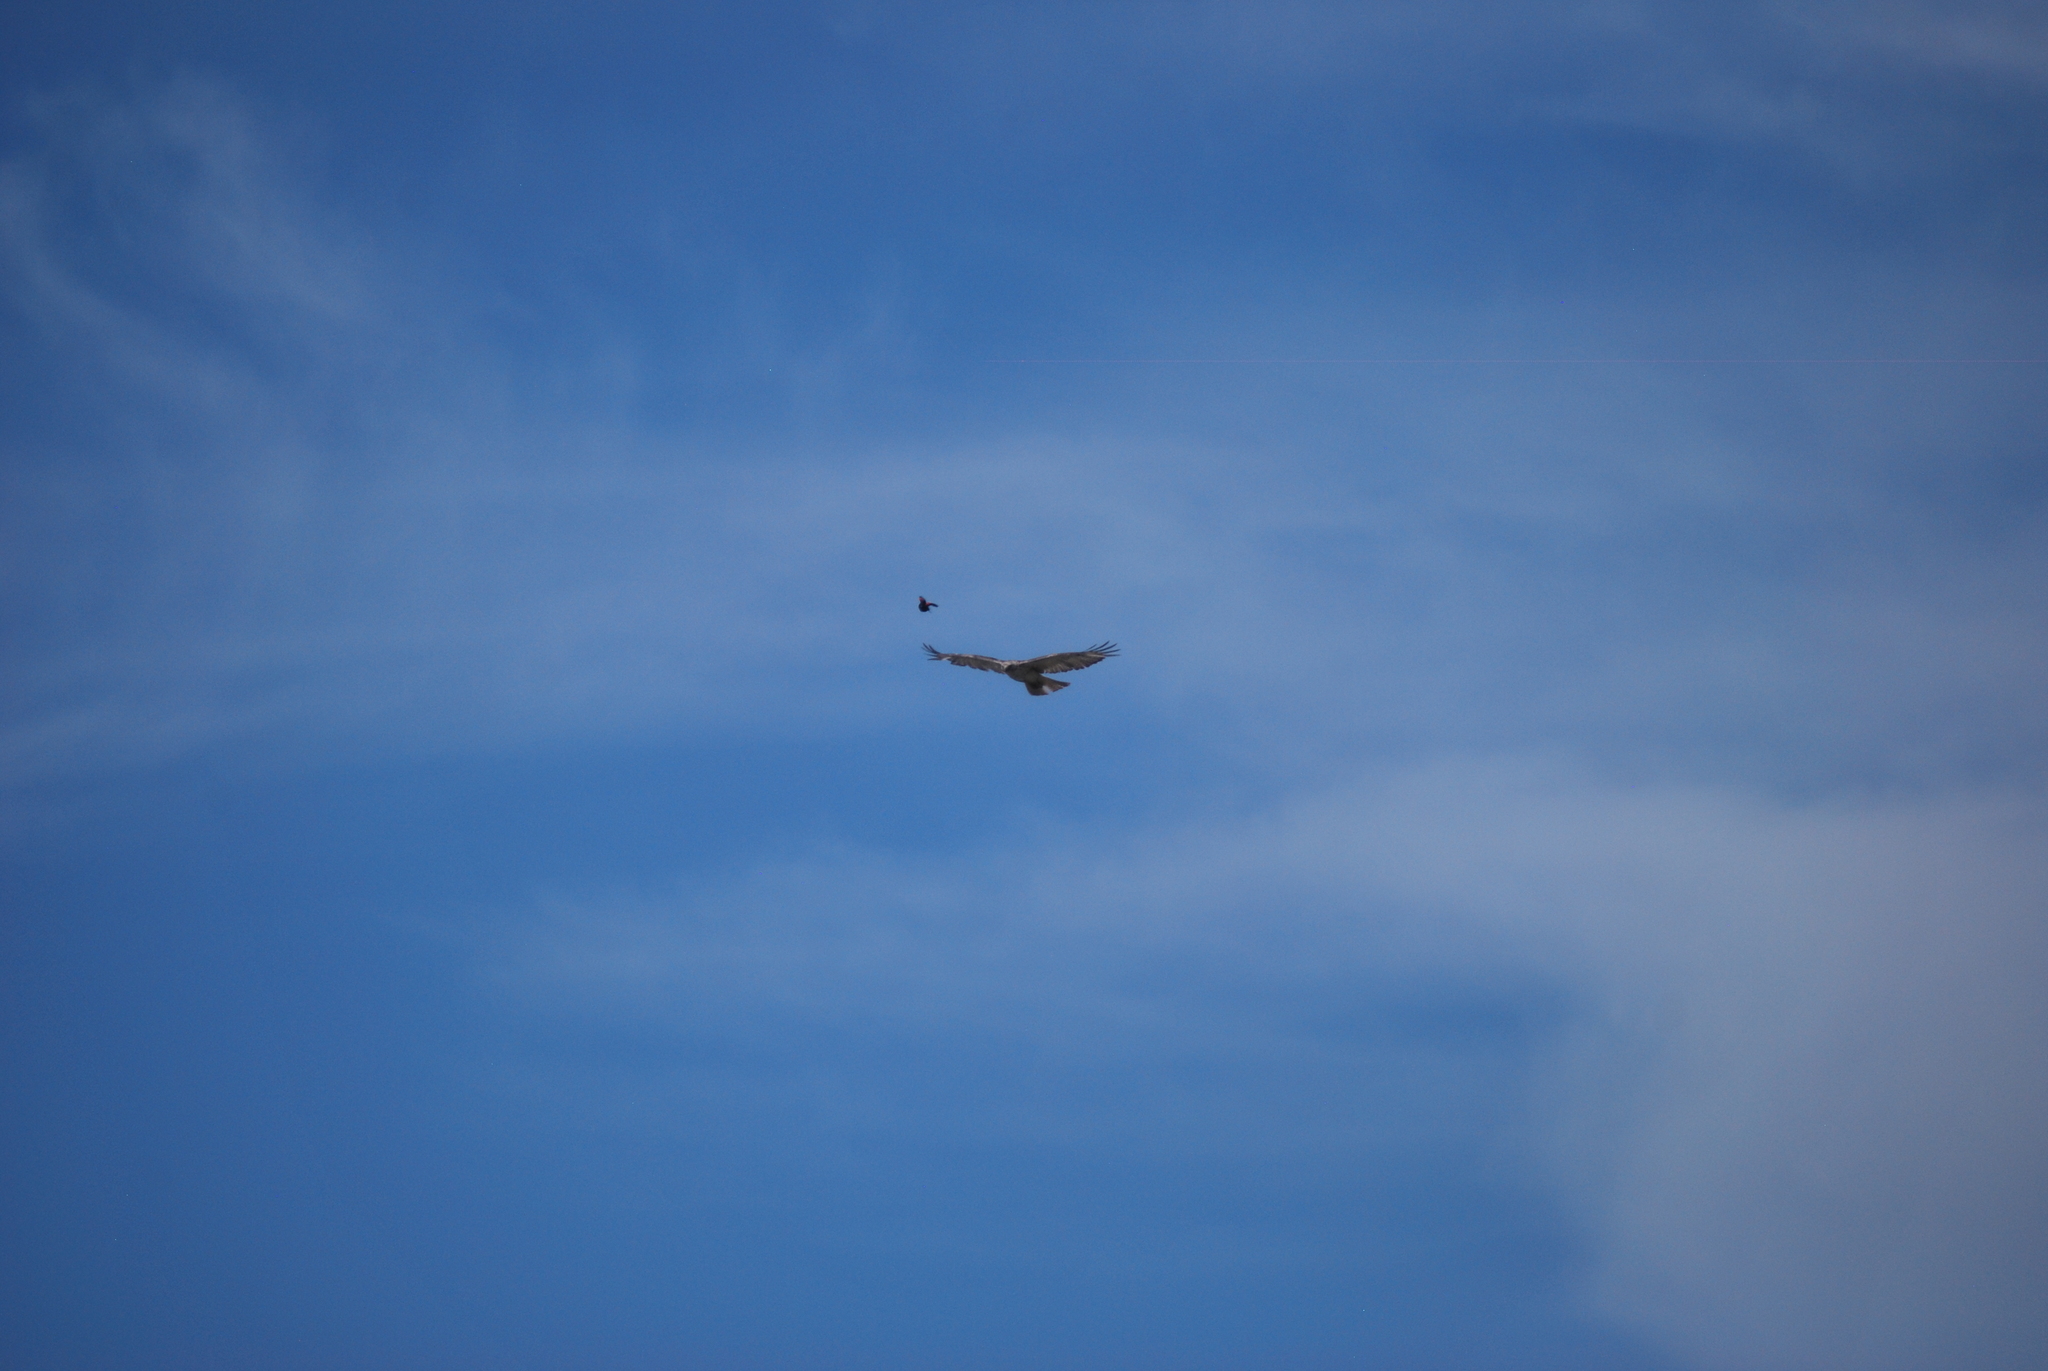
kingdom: Animalia
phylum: Chordata
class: Aves
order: Passeriformes
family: Icteridae
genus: Agelaius
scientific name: Agelaius phoeniceus
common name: Red-winged blackbird
